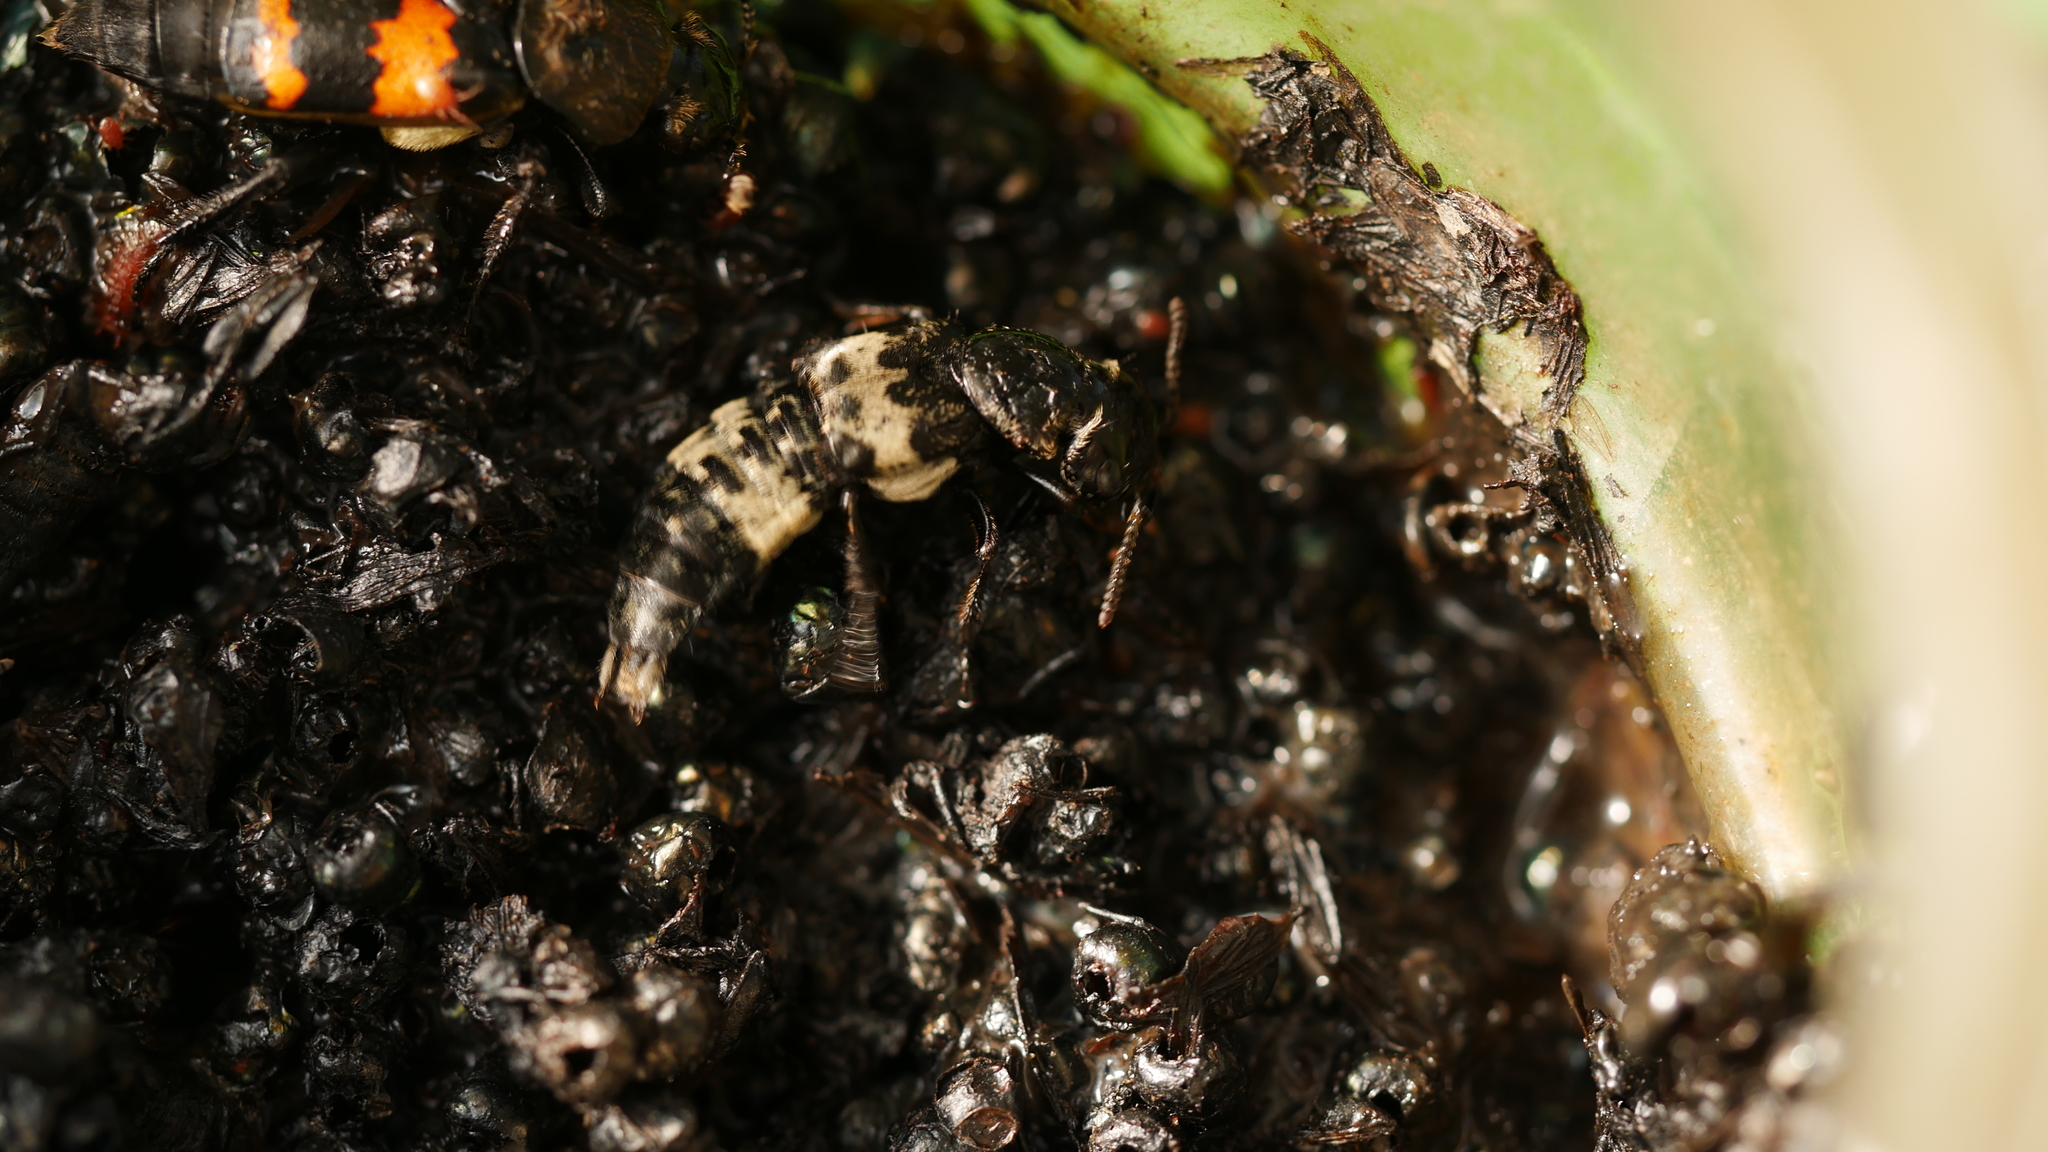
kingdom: Animalia
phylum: Arthropoda
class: Insecta
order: Coleoptera
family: Staphylinidae
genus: Creophilus
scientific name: Creophilus maxillosus
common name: Hairy rove beetle
